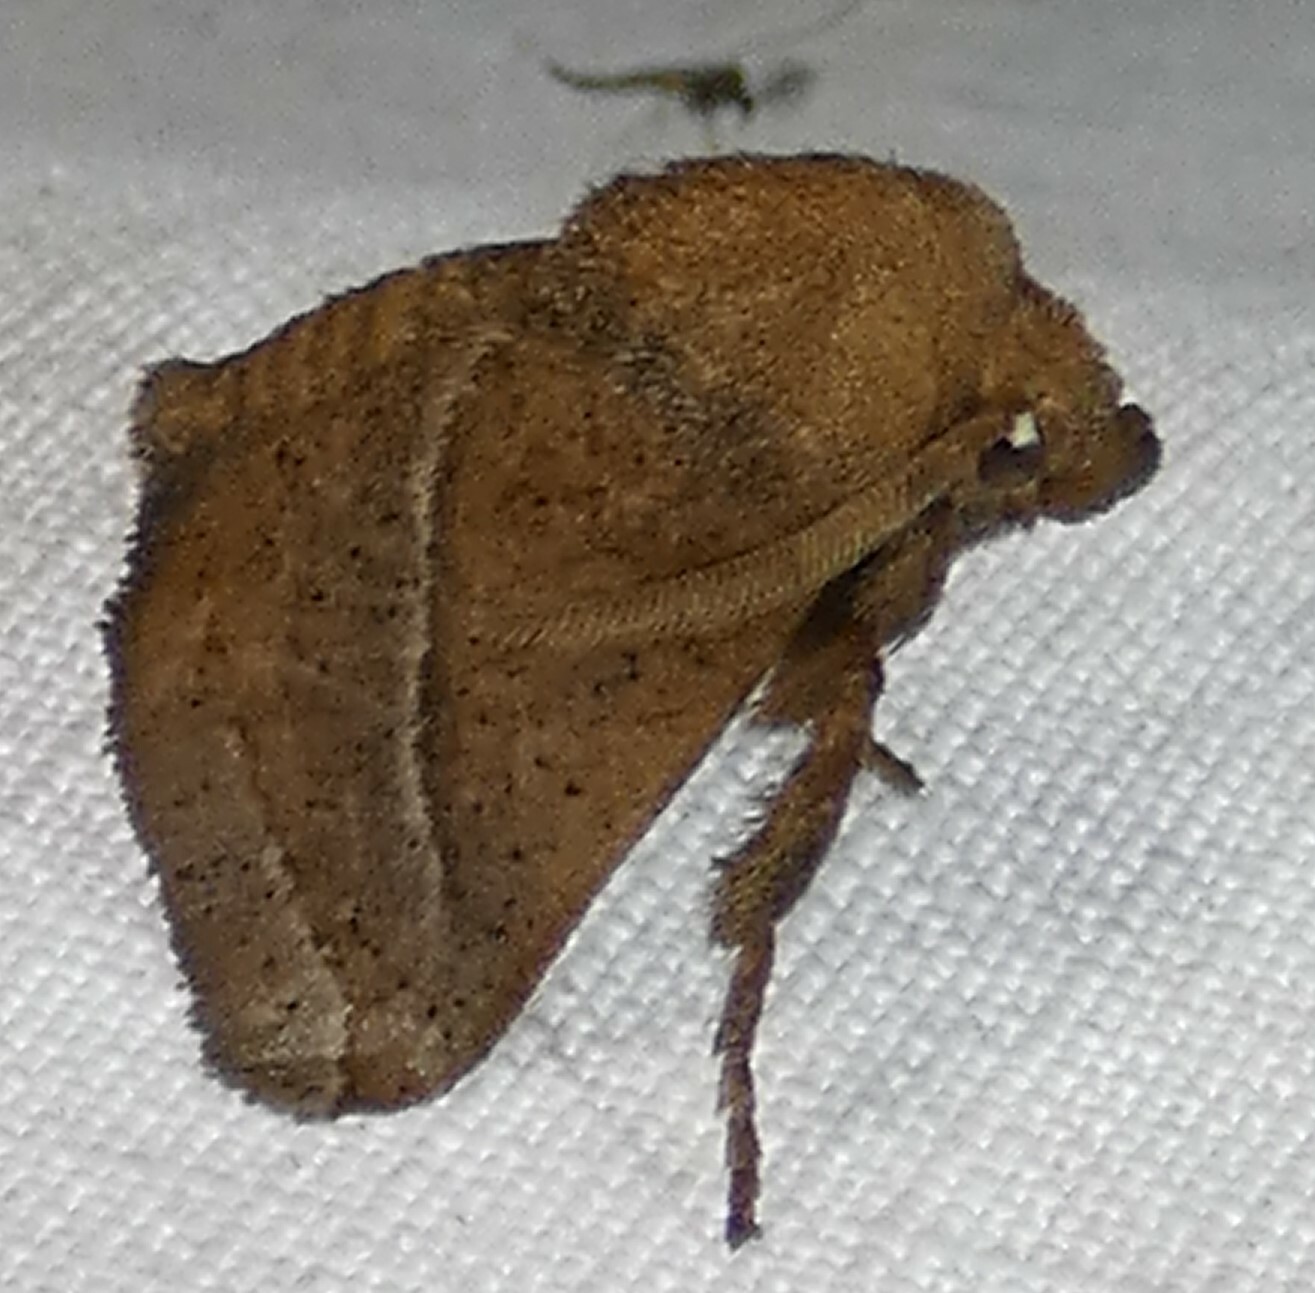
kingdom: Animalia
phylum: Arthropoda
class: Insecta
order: Lepidoptera
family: Limacodidae
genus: Natada
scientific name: Natada nasoni
